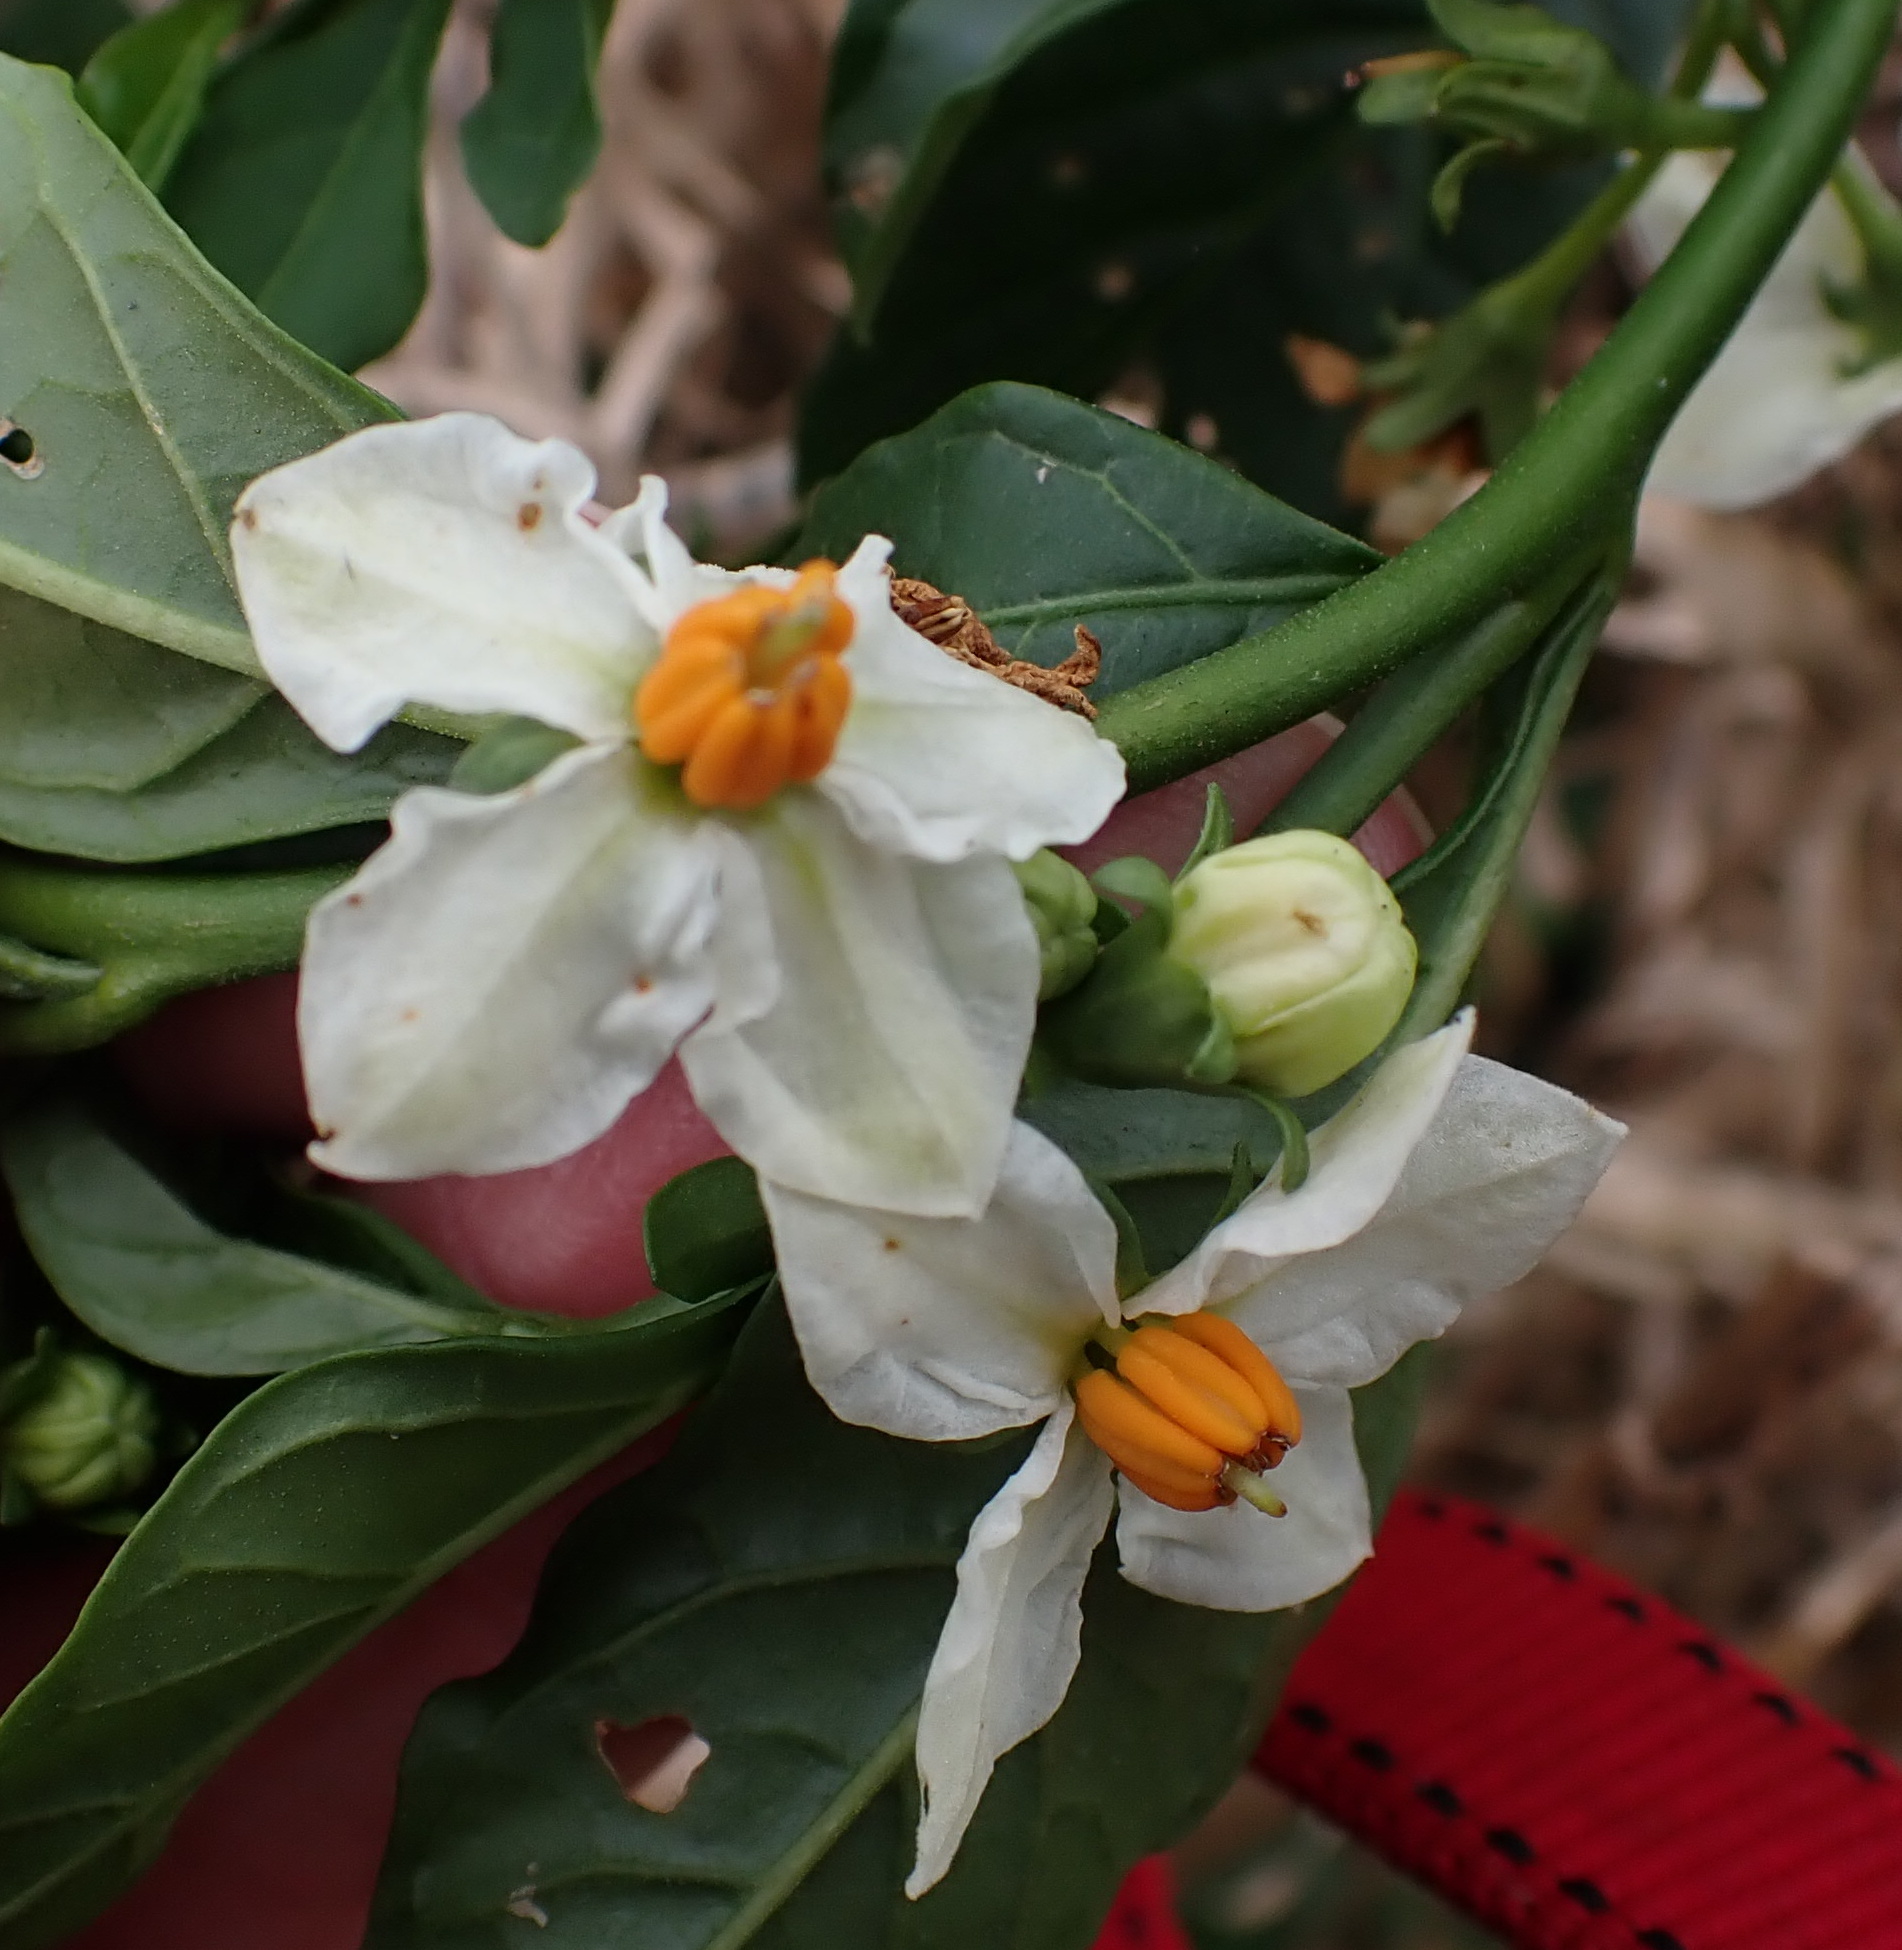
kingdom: Plantae
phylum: Tracheophyta
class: Magnoliopsida
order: Solanales
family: Solanaceae
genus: Solanum
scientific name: Solanum pseudocapsicum
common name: Jerusalem cherry
